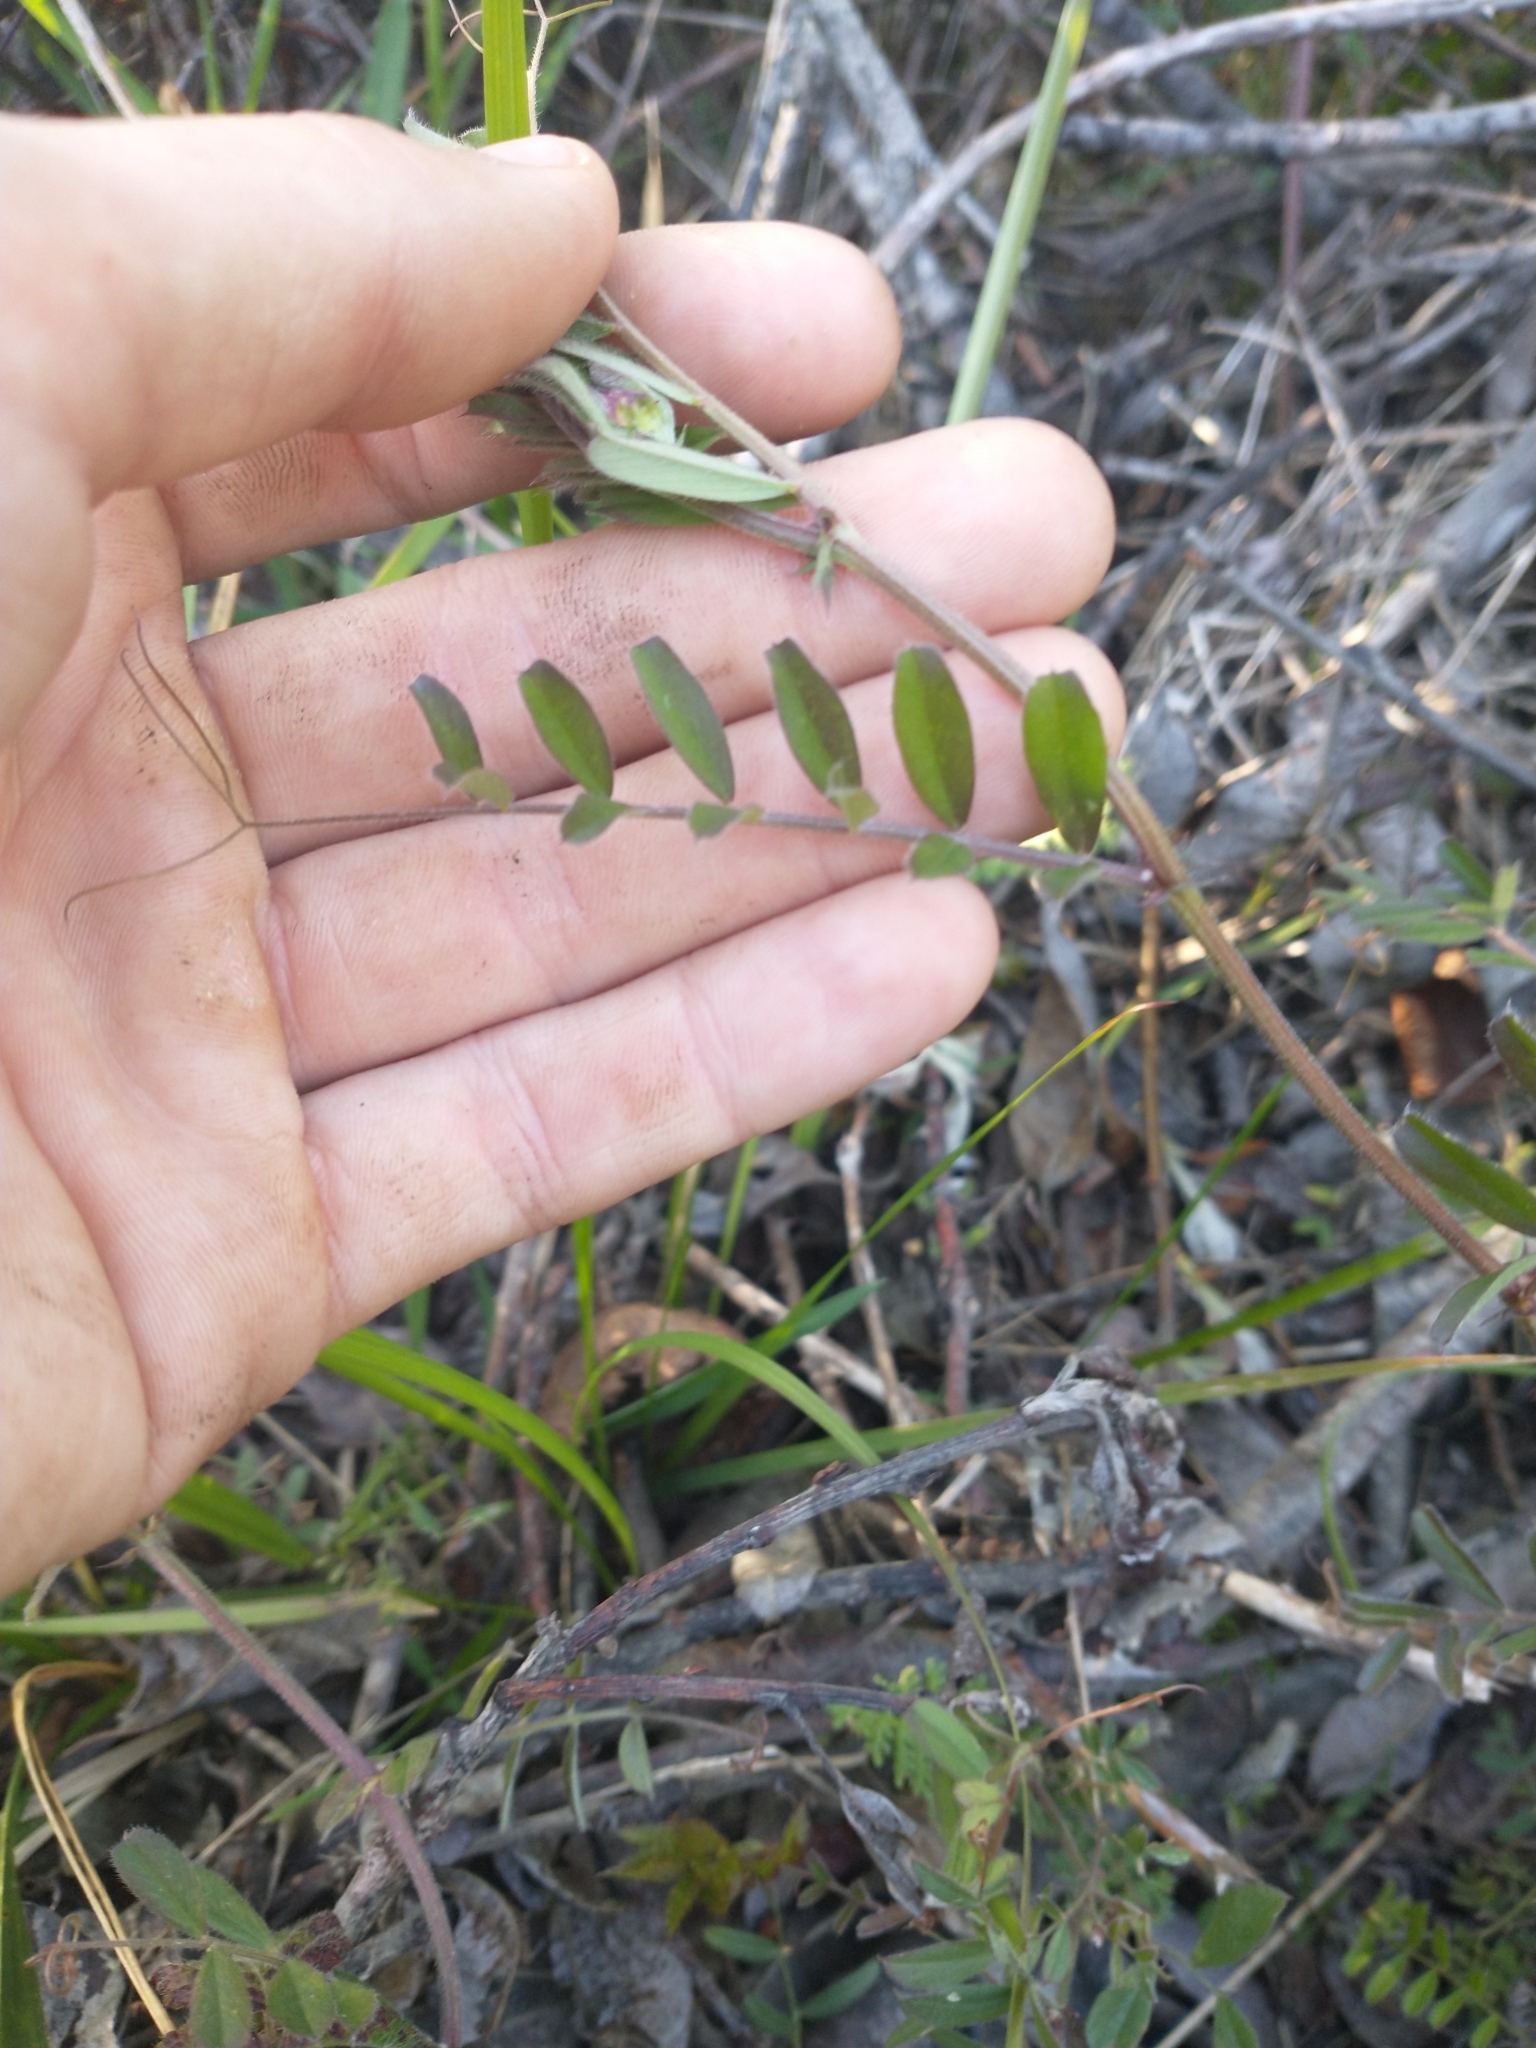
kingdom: Plantae
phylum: Tracheophyta
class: Magnoliopsida
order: Fabales
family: Fabaceae
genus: Vicia
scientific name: Vicia sativa
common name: Garden vetch
